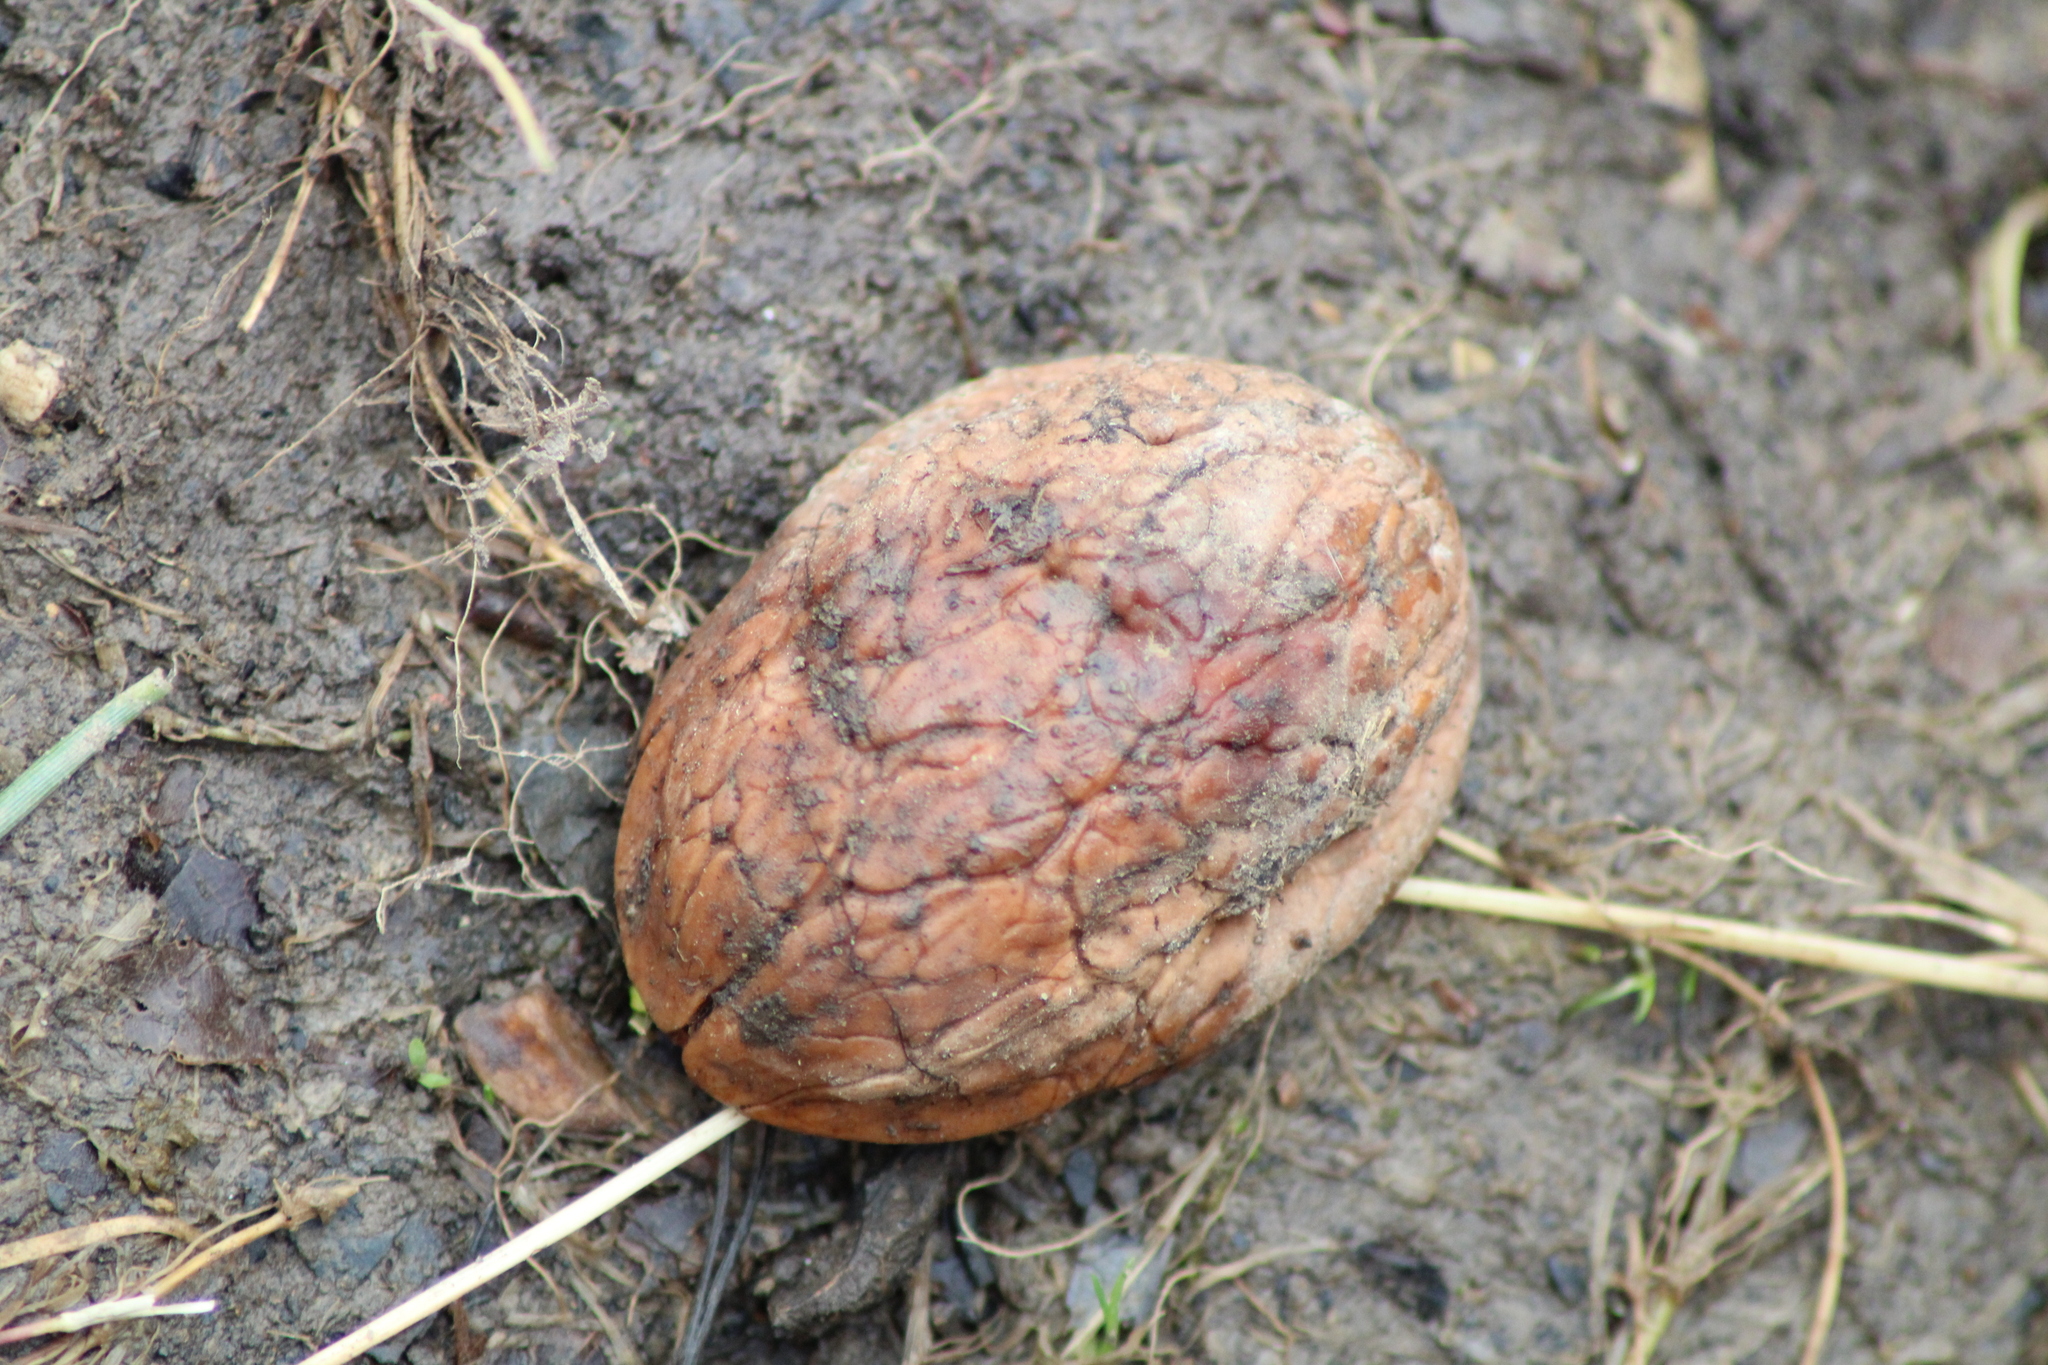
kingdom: Plantae
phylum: Tracheophyta
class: Magnoliopsida
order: Fagales
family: Juglandaceae
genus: Juglans
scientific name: Juglans regia
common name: Walnut
